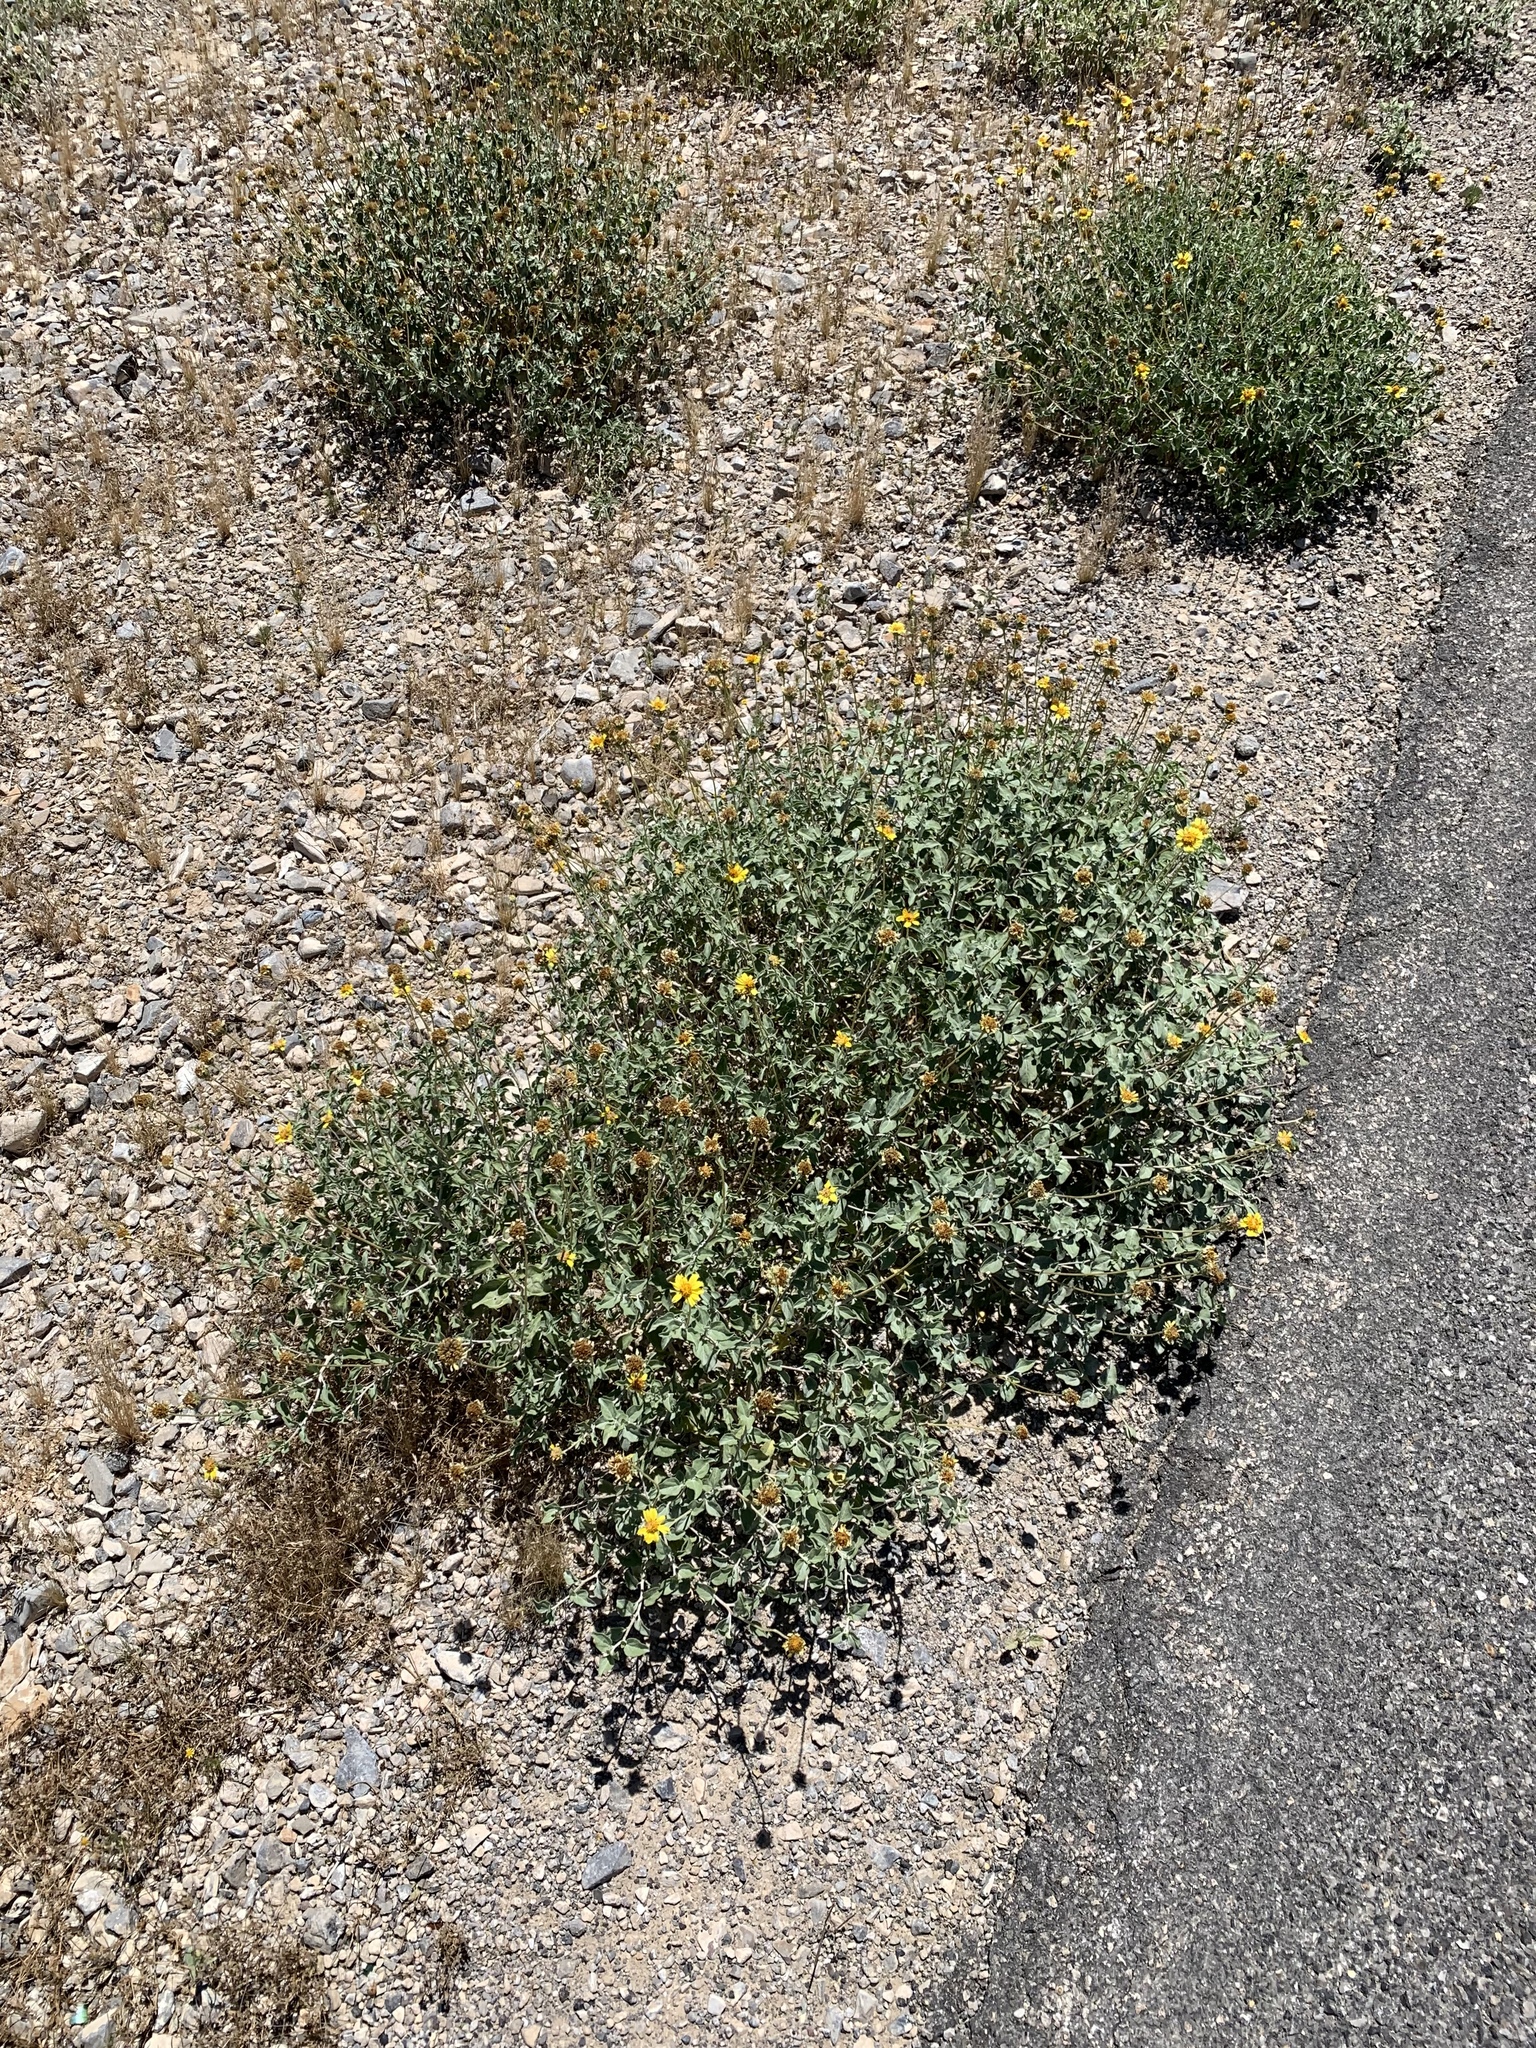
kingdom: Plantae
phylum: Tracheophyta
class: Magnoliopsida
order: Asterales
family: Asteraceae
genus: Encelia
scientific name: Encelia virginensis
